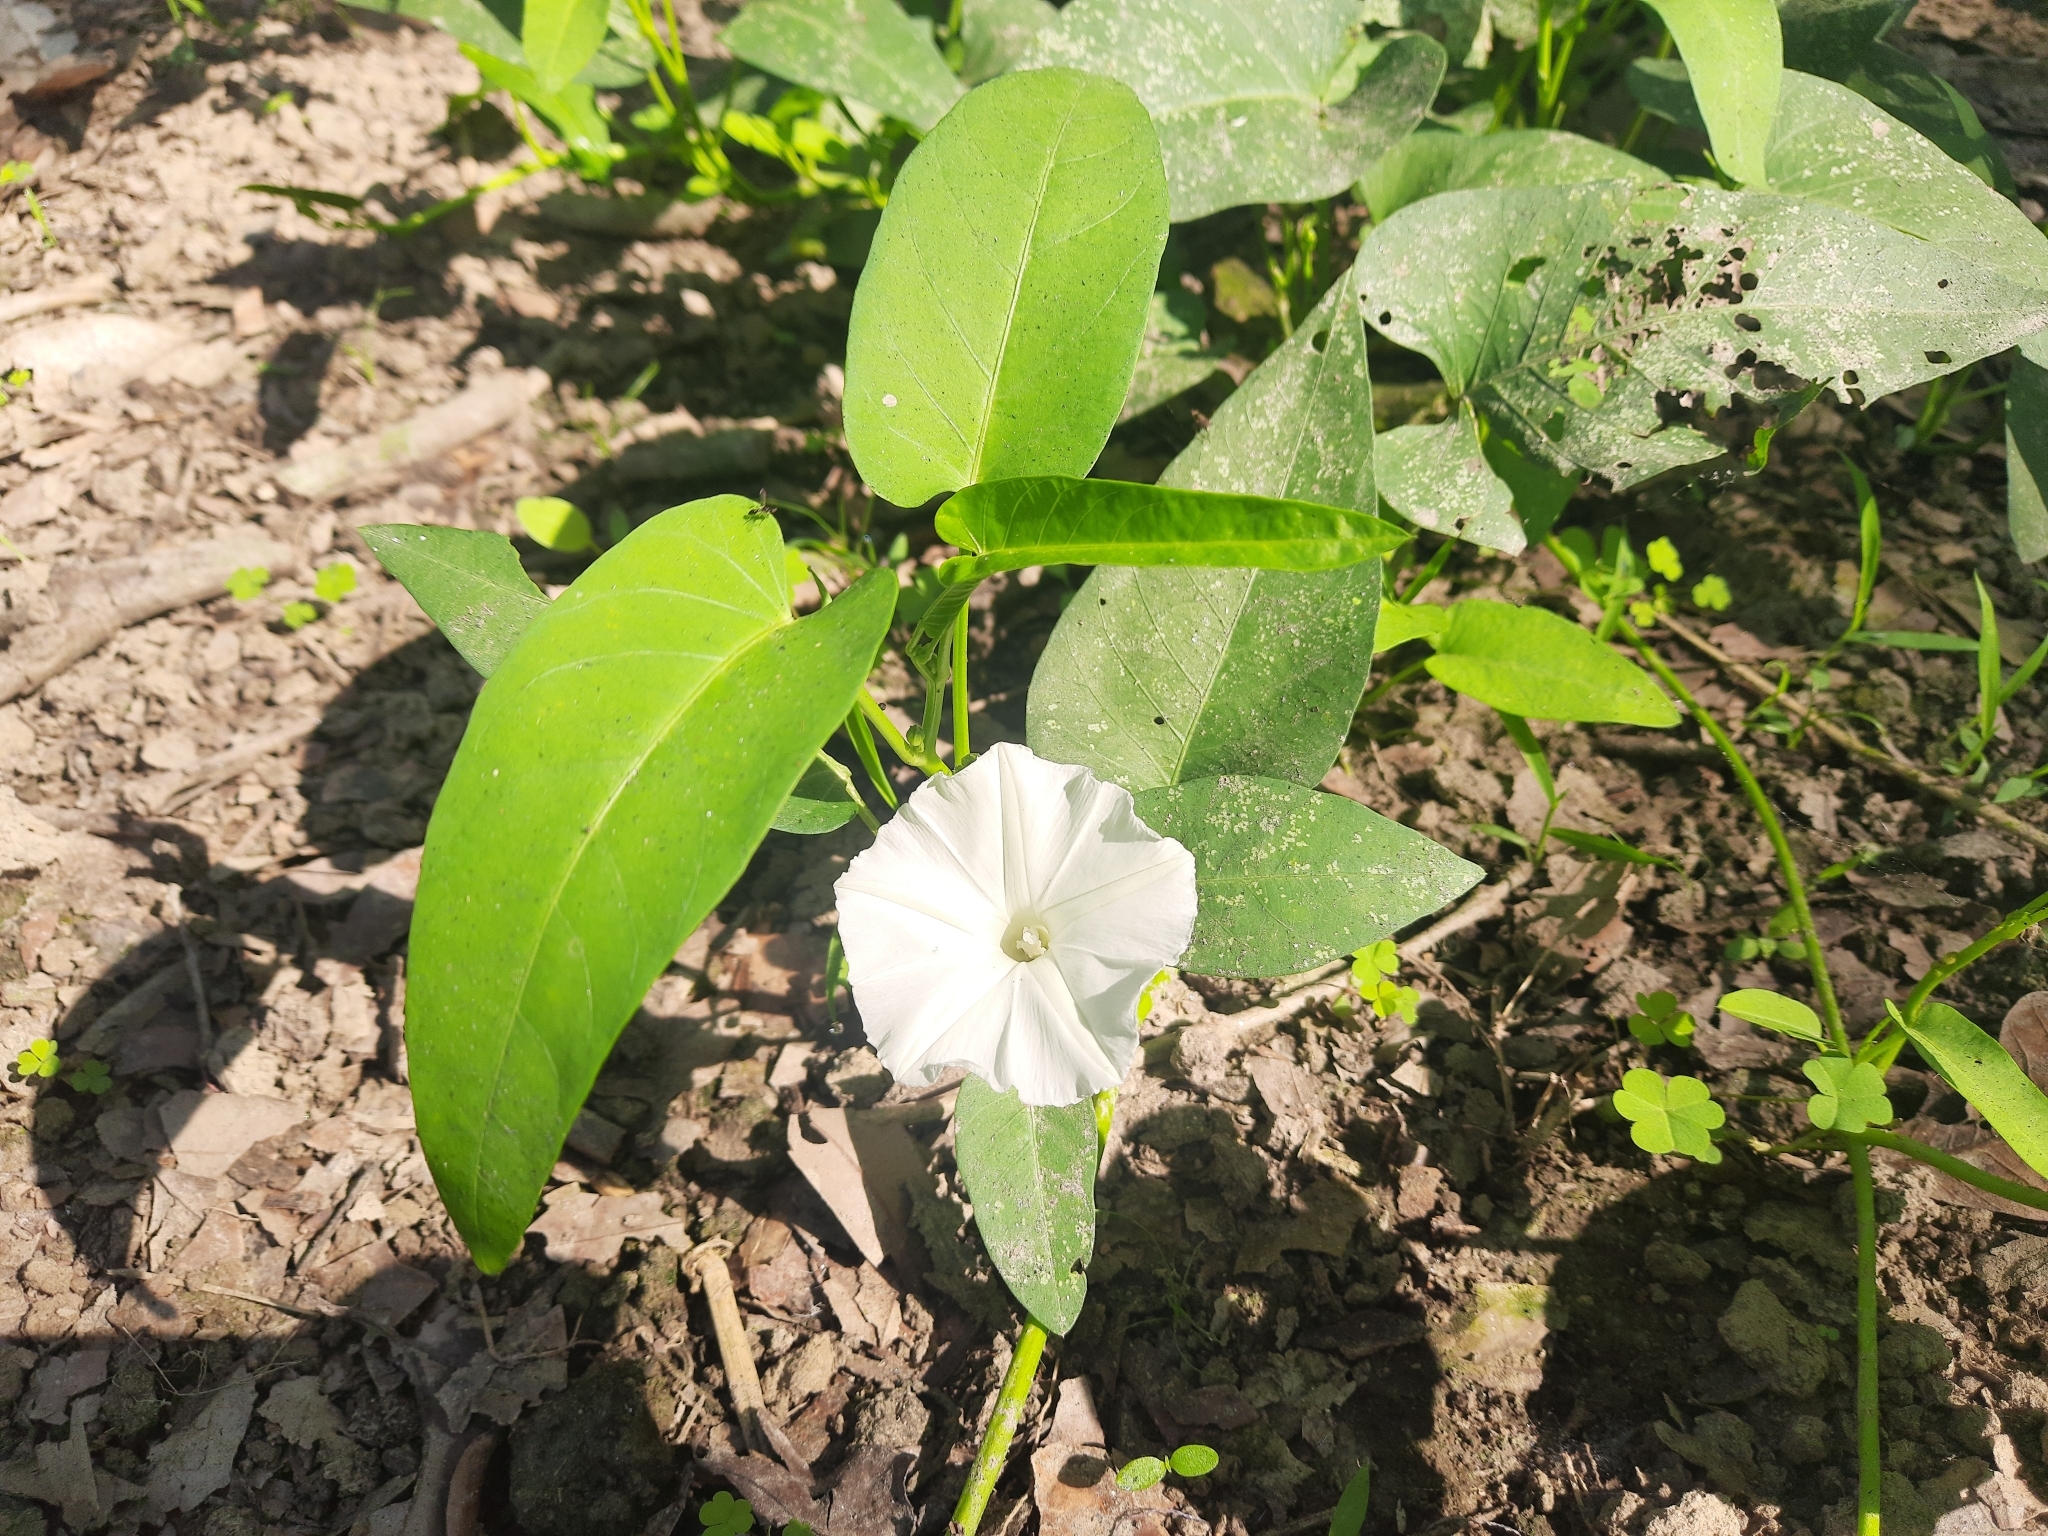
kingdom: Plantae
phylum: Tracheophyta
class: Magnoliopsida
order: Solanales
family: Convolvulaceae
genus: Ipomoea
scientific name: Ipomoea aquatica
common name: Swamp morning-glory
